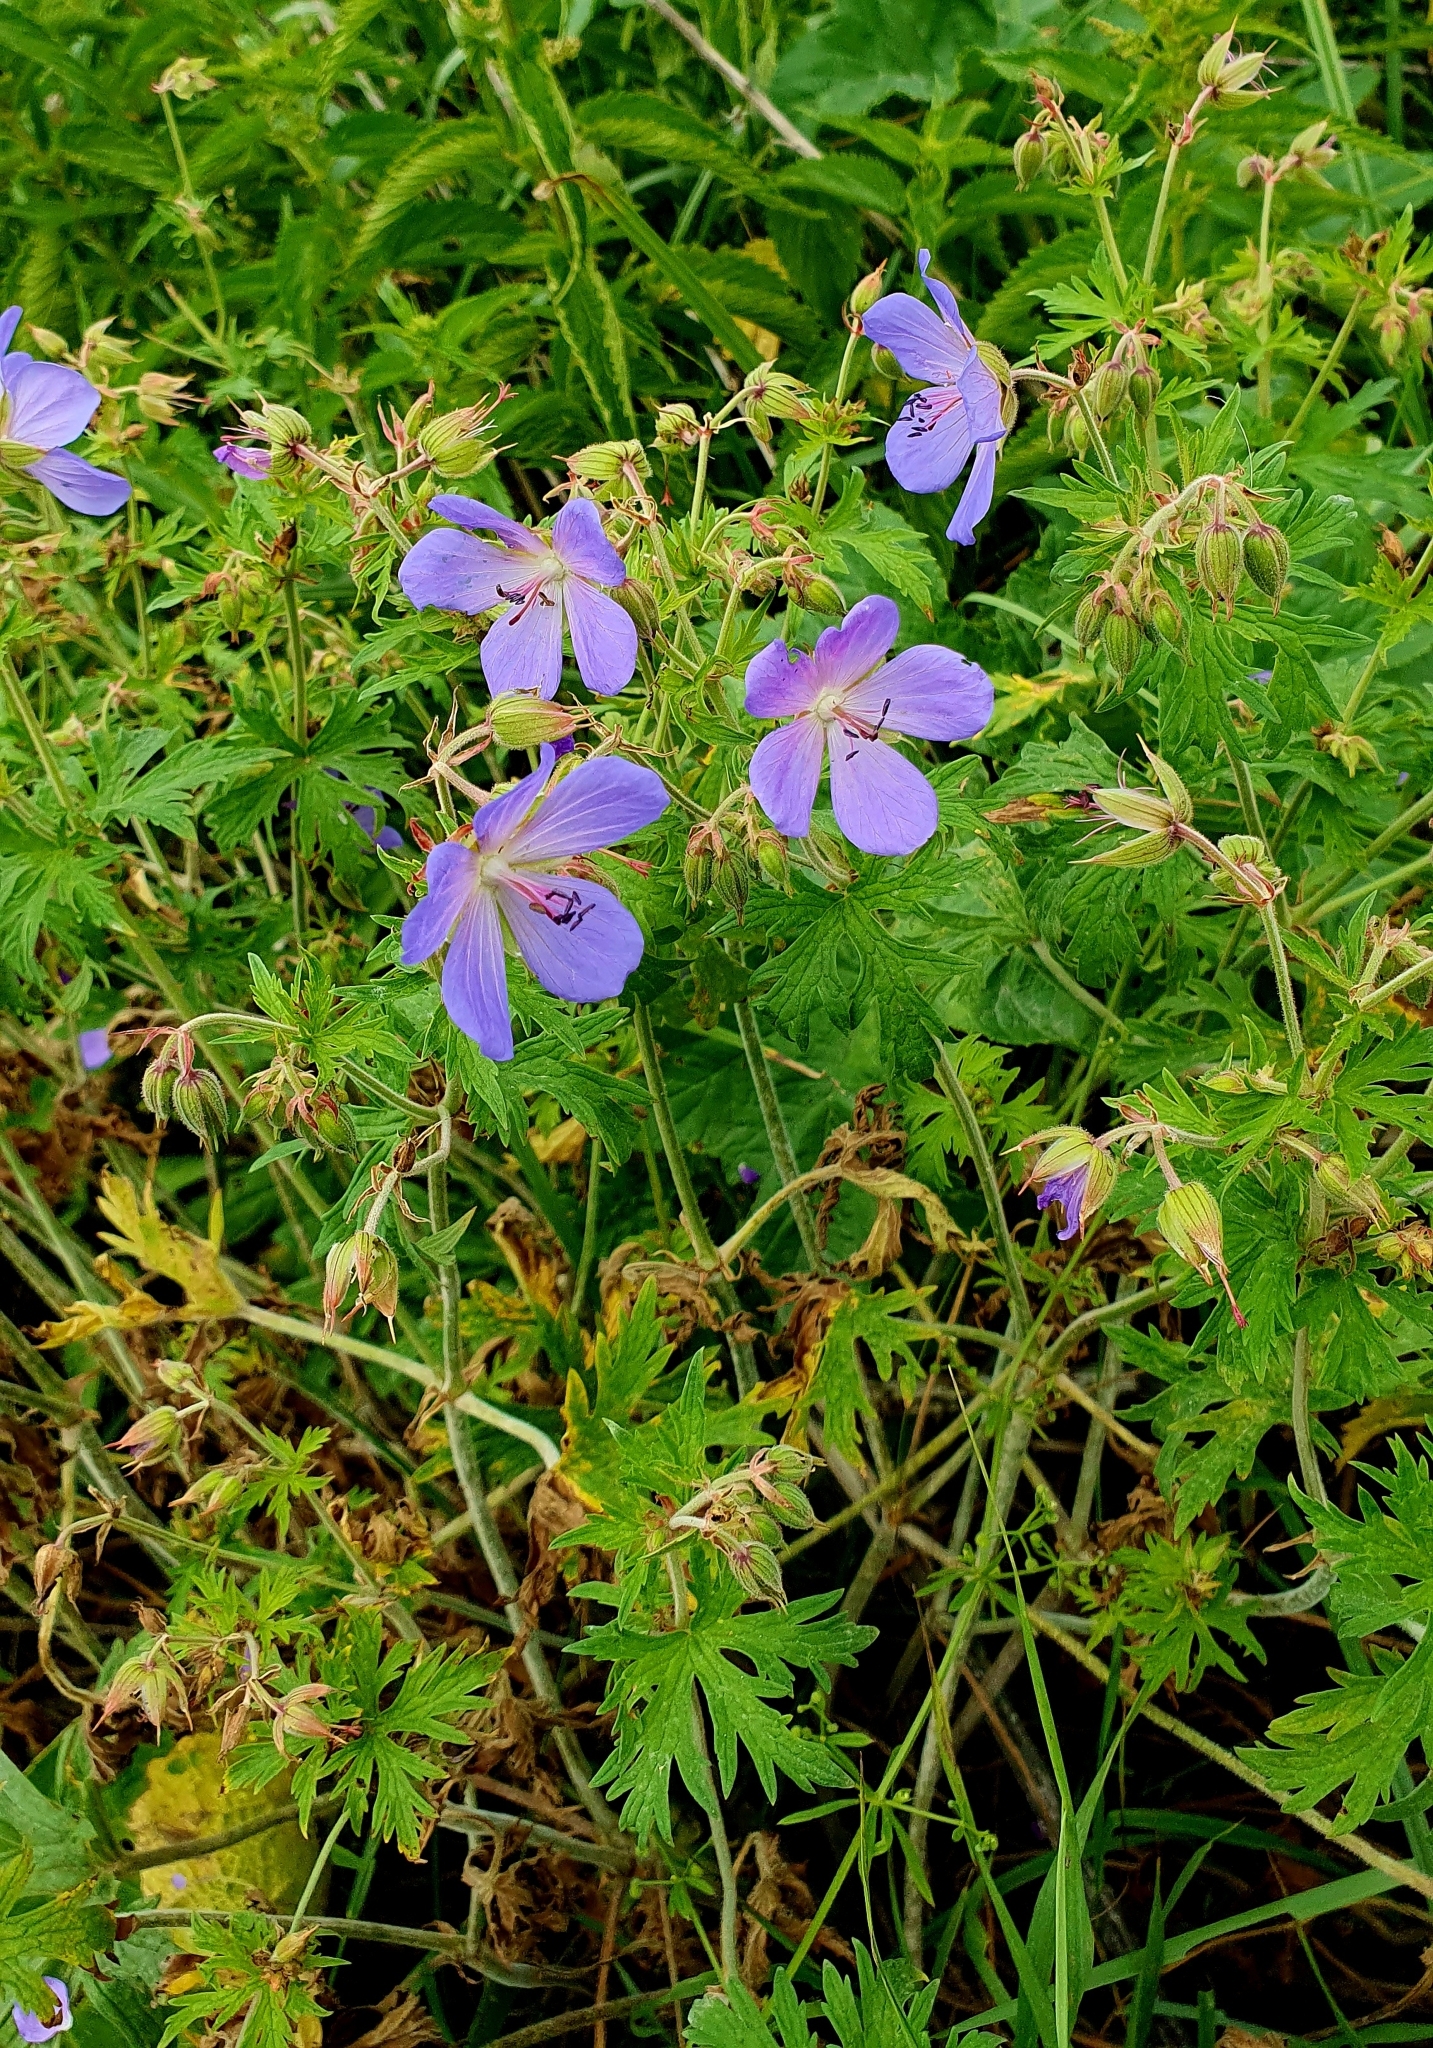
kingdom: Plantae
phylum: Tracheophyta
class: Magnoliopsida
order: Geraniales
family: Geraniaceae
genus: Geranium
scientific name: Geranium pratense
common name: Meadow crane's-bill
